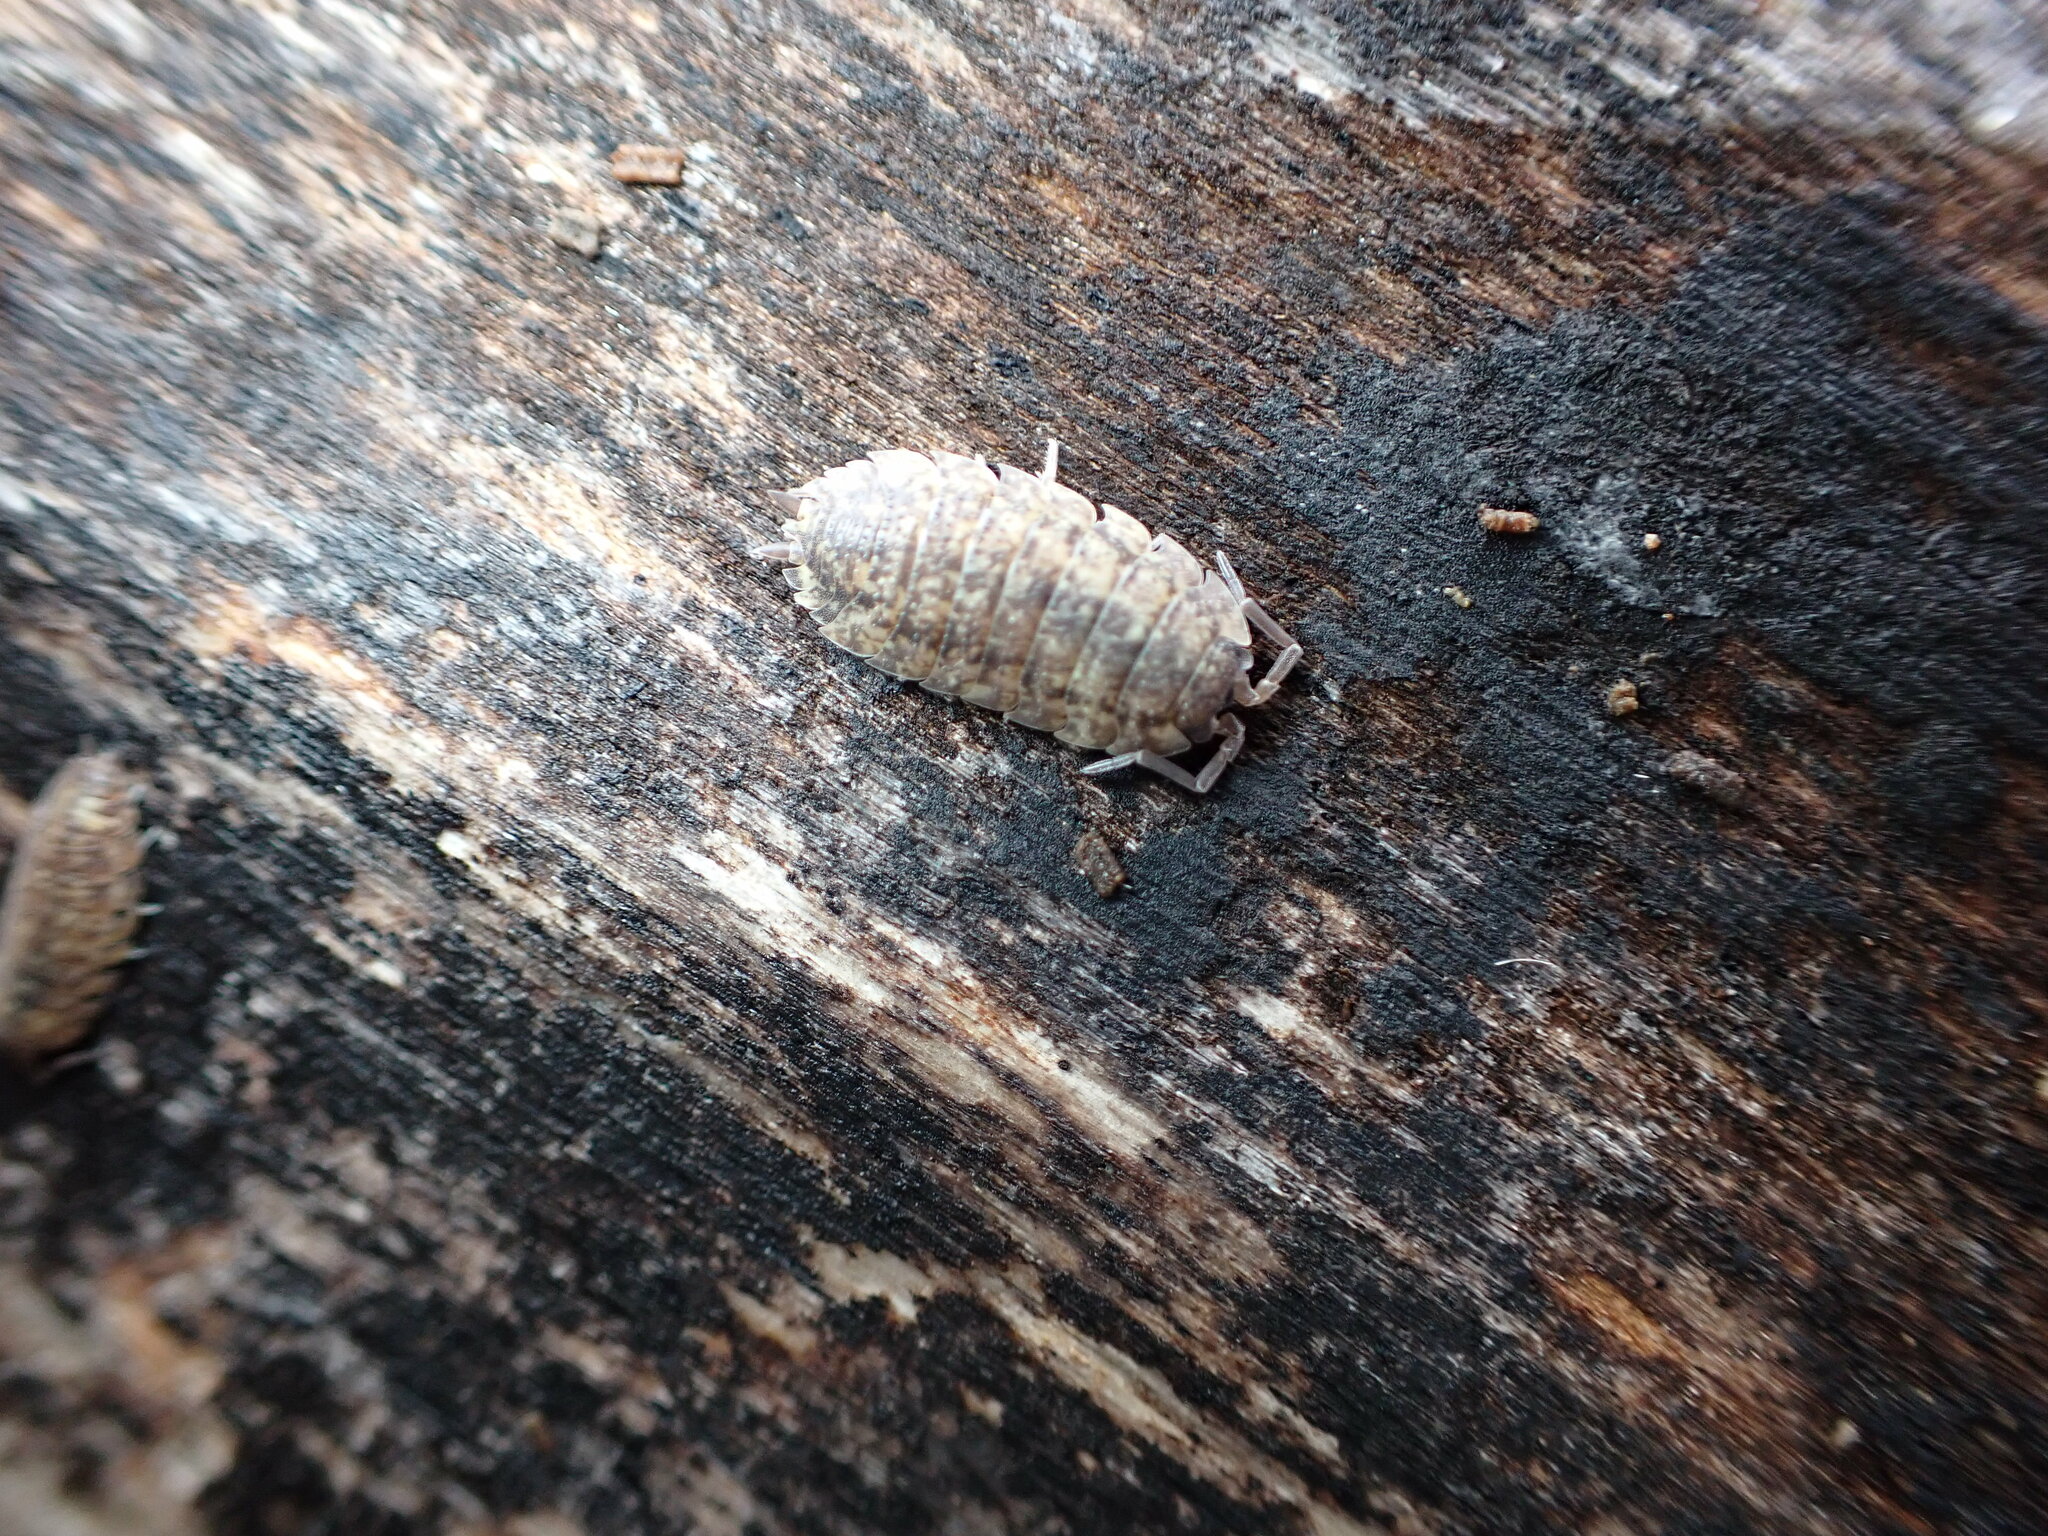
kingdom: Animalia
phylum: Arthropoda
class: Malacostraca
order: Isopoda
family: Porcellionidae
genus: Porcellio
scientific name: Porcellio scaber
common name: Common rough woodlouse
